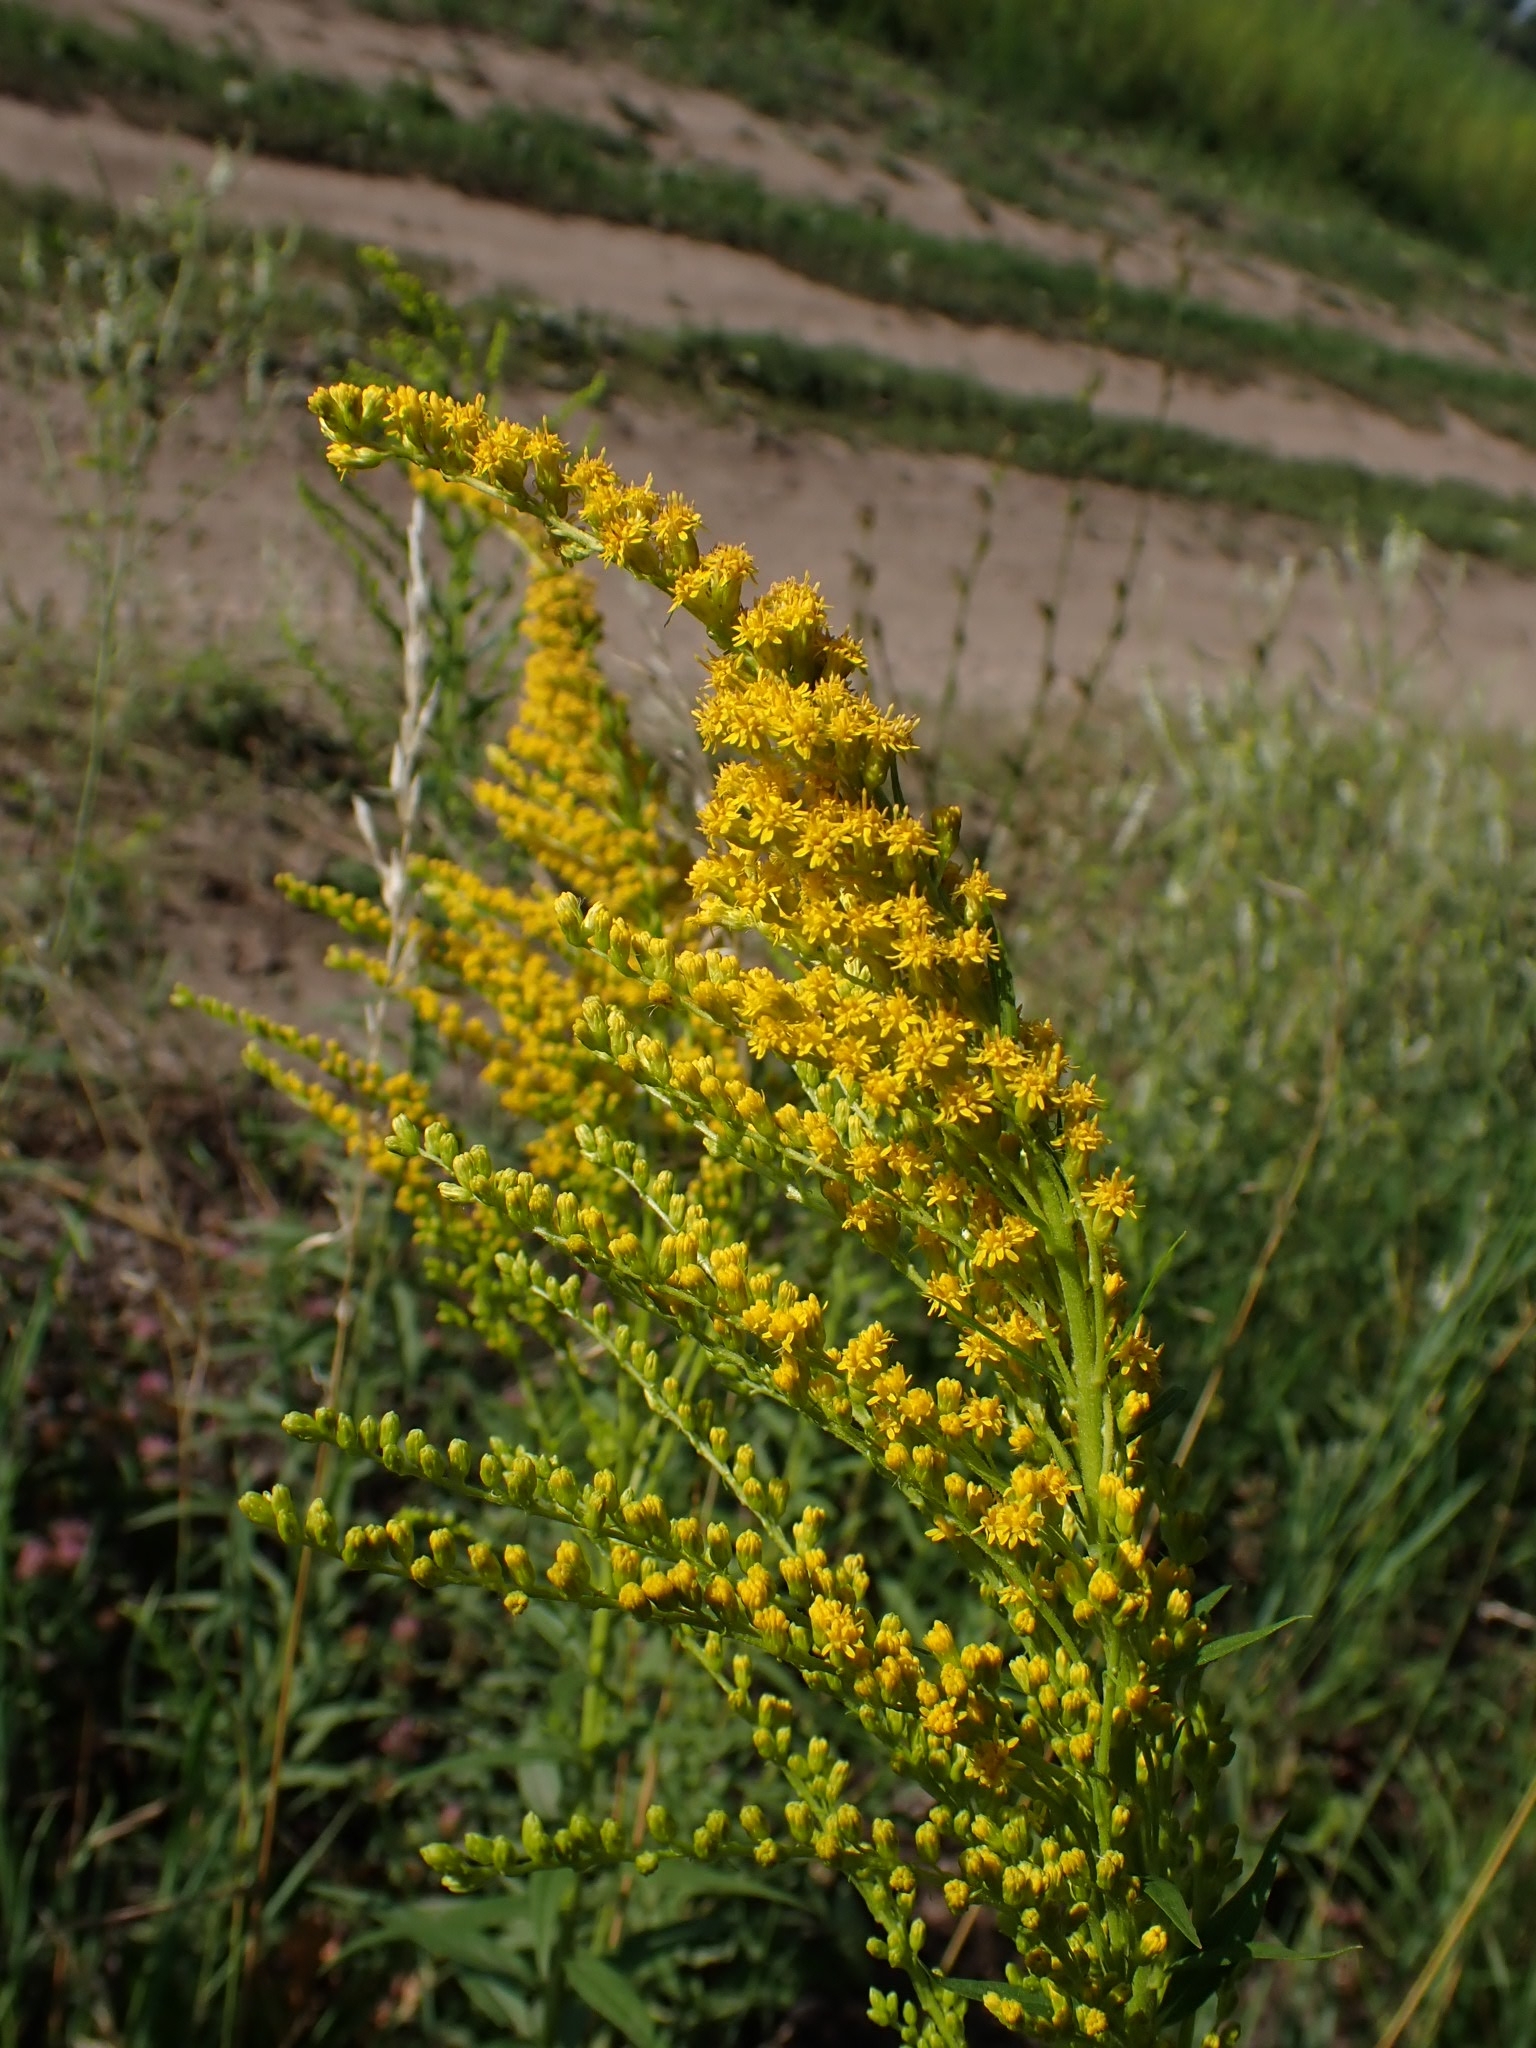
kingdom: Plantae
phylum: Tracheophyta
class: Magnoliopsida
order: Asterales
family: Asteraceae
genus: Solidago
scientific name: Solidago canadensis
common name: Canada goldenrod
